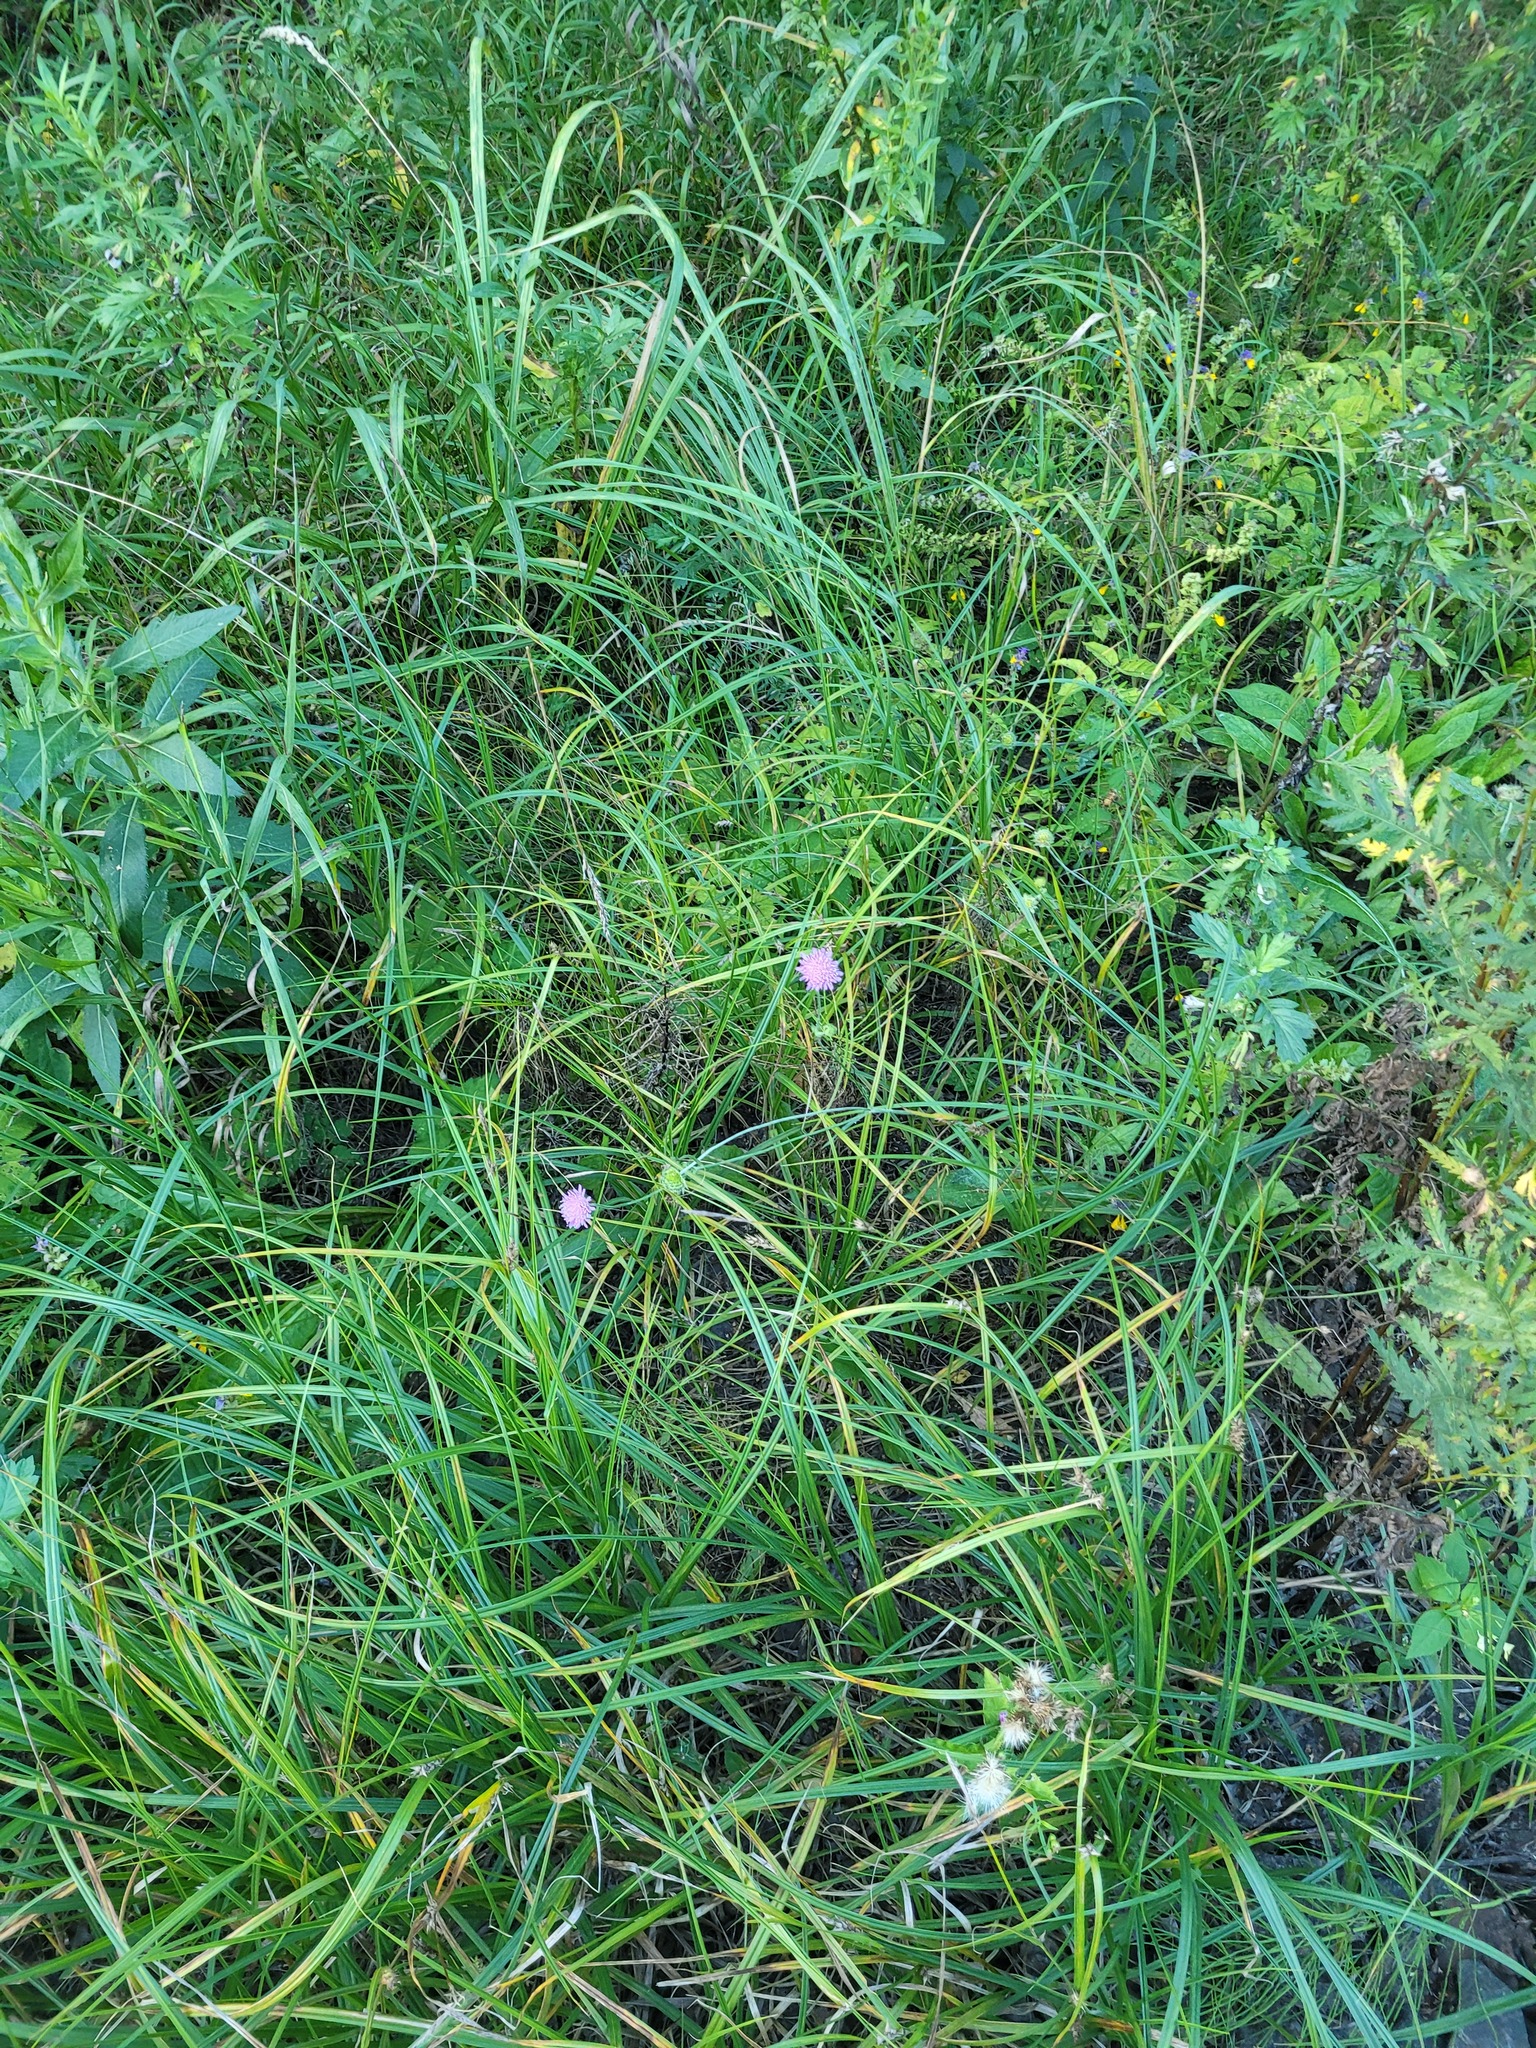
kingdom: Plantae
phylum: Tracheophyta
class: Magnoliopsida
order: Dipsacales
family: Caprifoliaceae
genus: Knautia
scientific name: Knautia arvensis
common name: Field scabiosa
